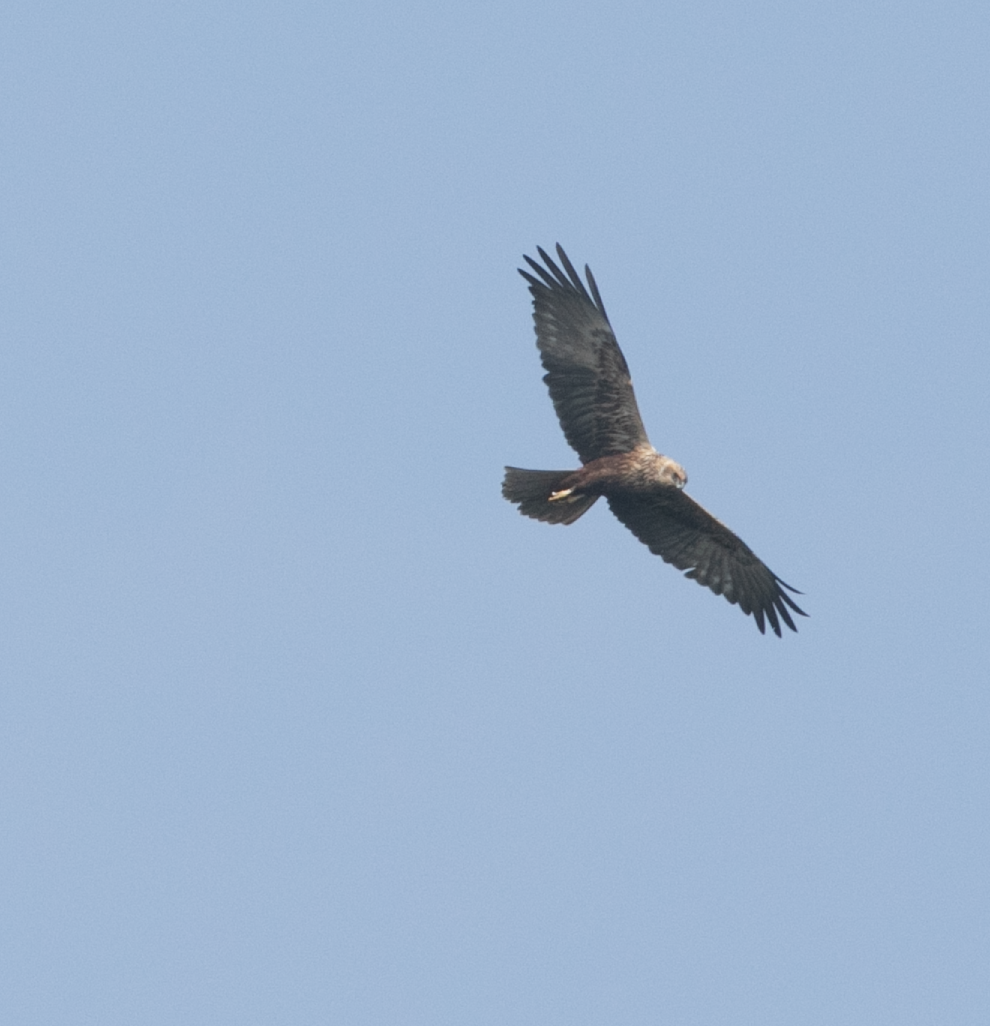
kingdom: Animalia
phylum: Chordata
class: Aves
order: Accipitriformes
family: Accipitridae
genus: Circus
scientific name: Circus aeruginosus
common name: Western marsh harrier
